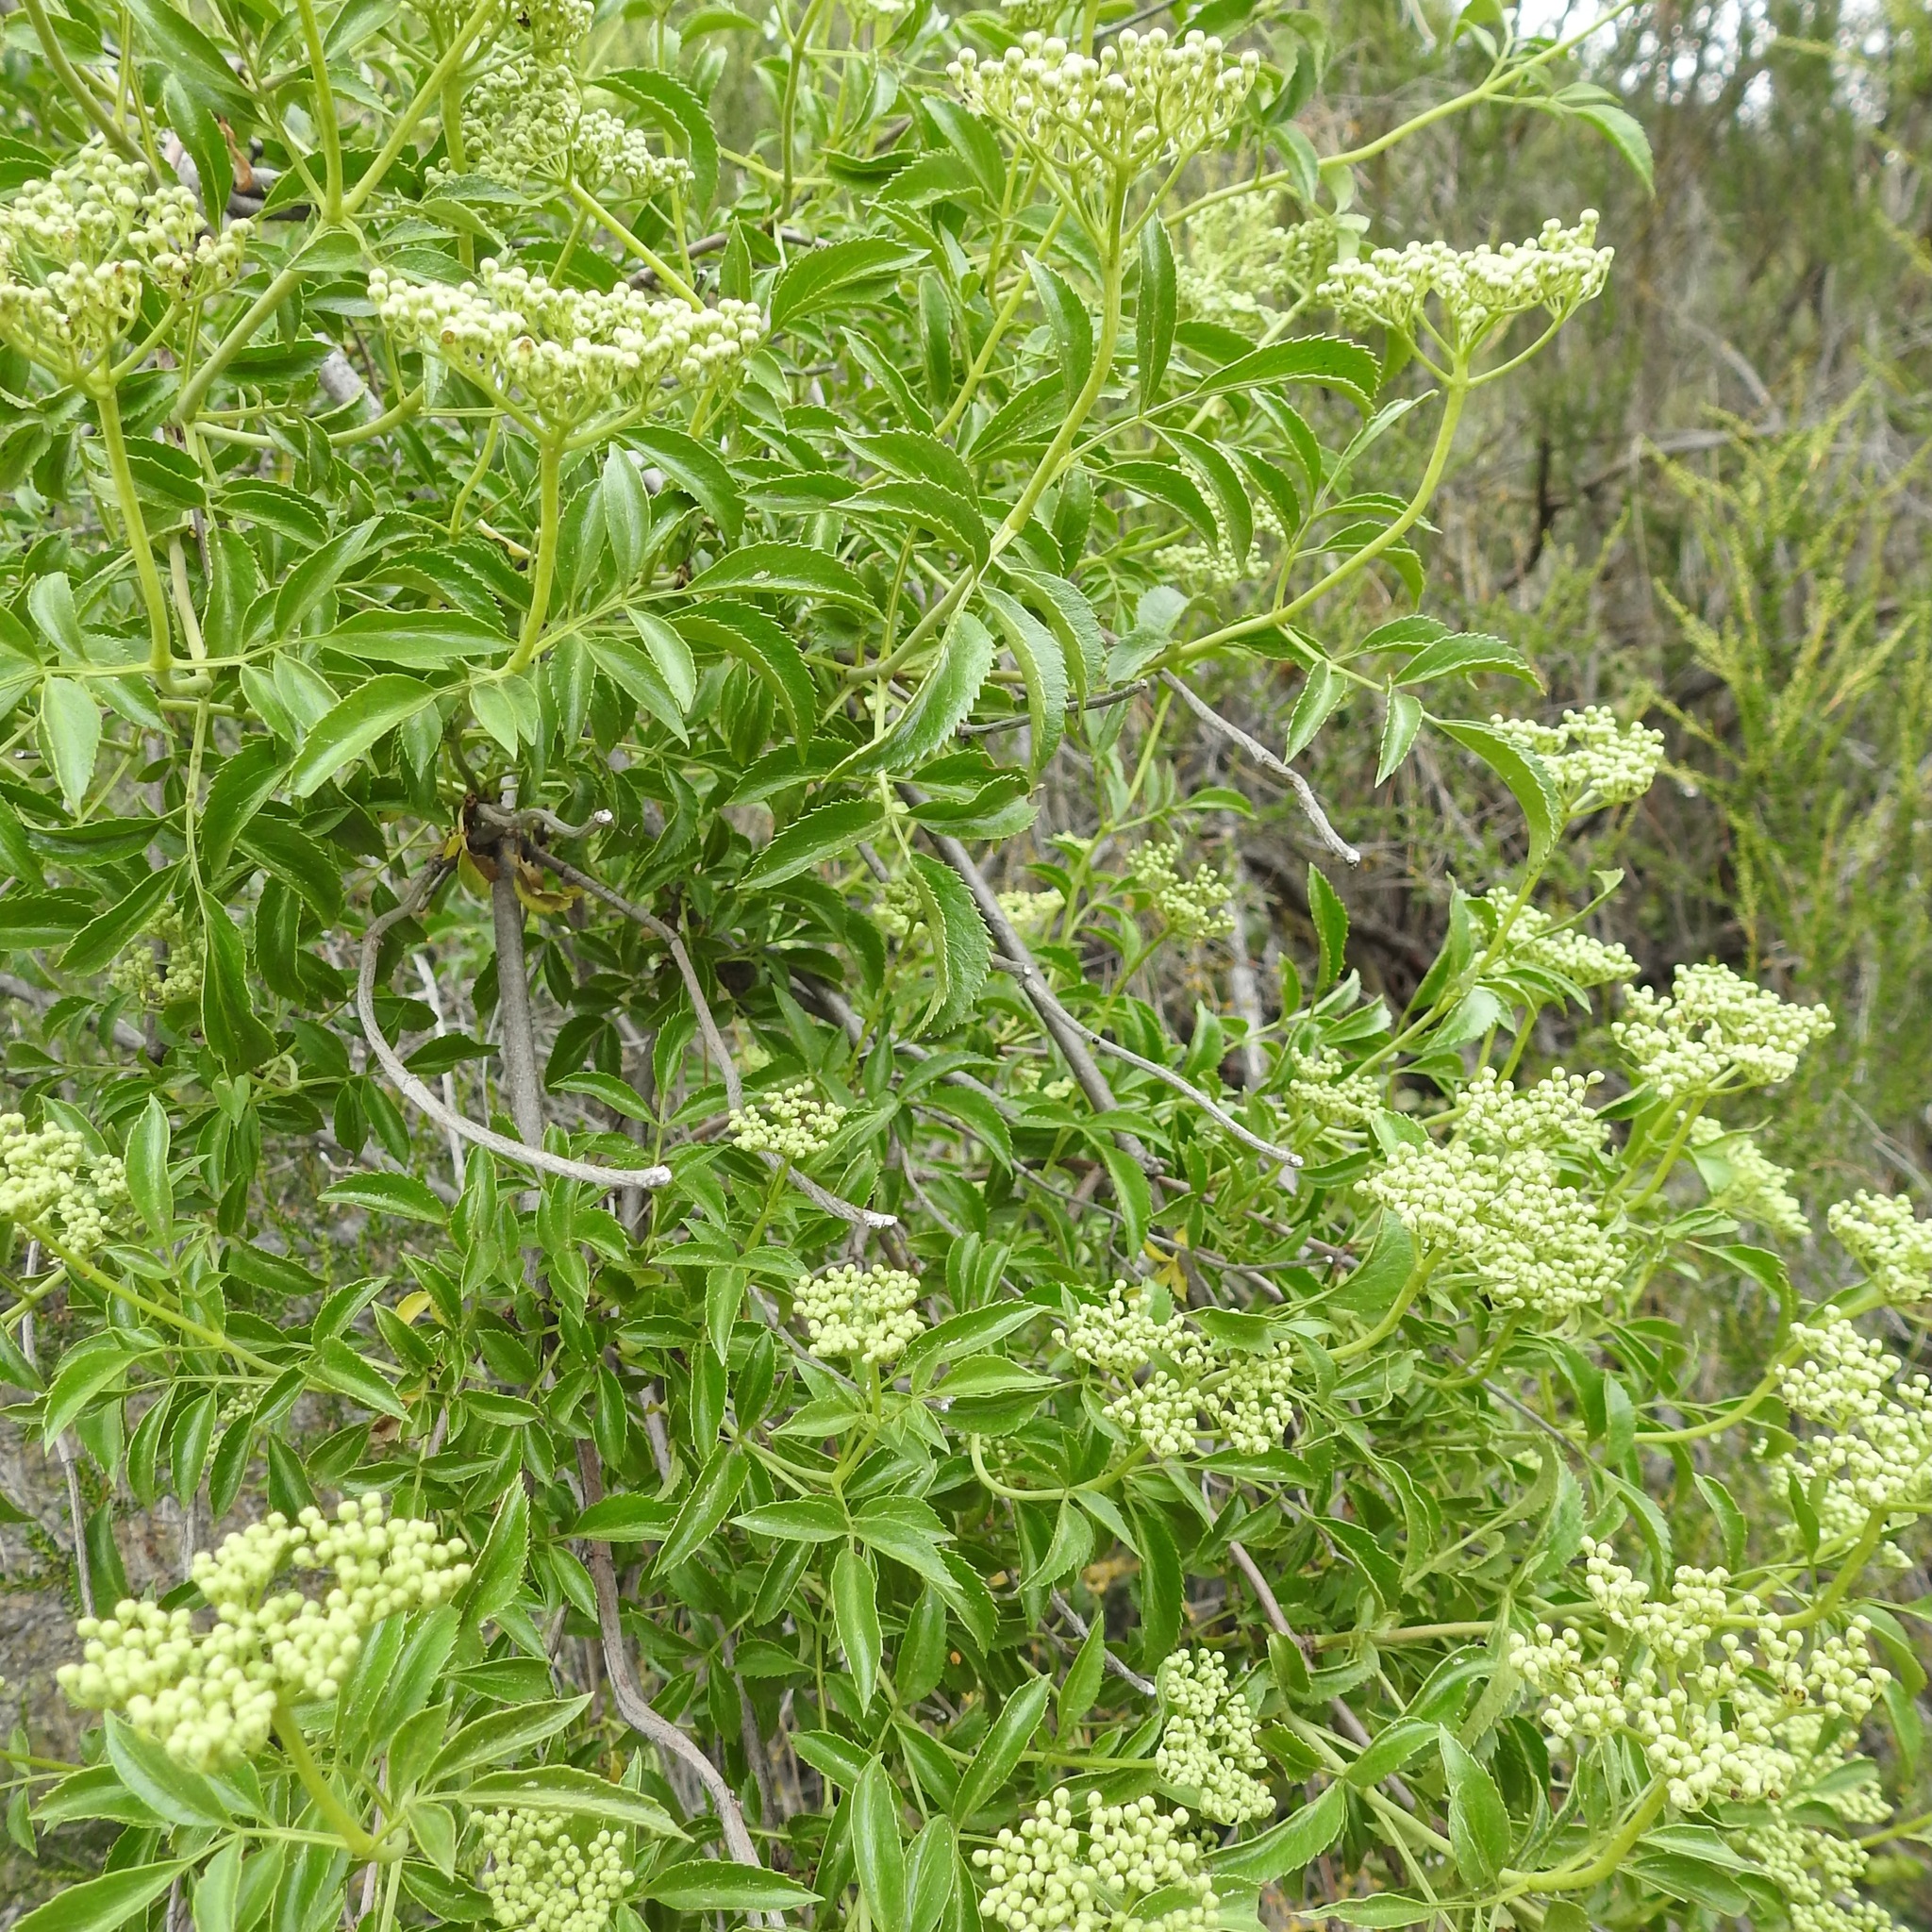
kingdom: Plantae
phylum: Tracheophyta
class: Magnoliopsida
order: Dipsacales
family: Viburnaceae
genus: Sambucus
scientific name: Sambucus cerulea
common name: Blue elder
